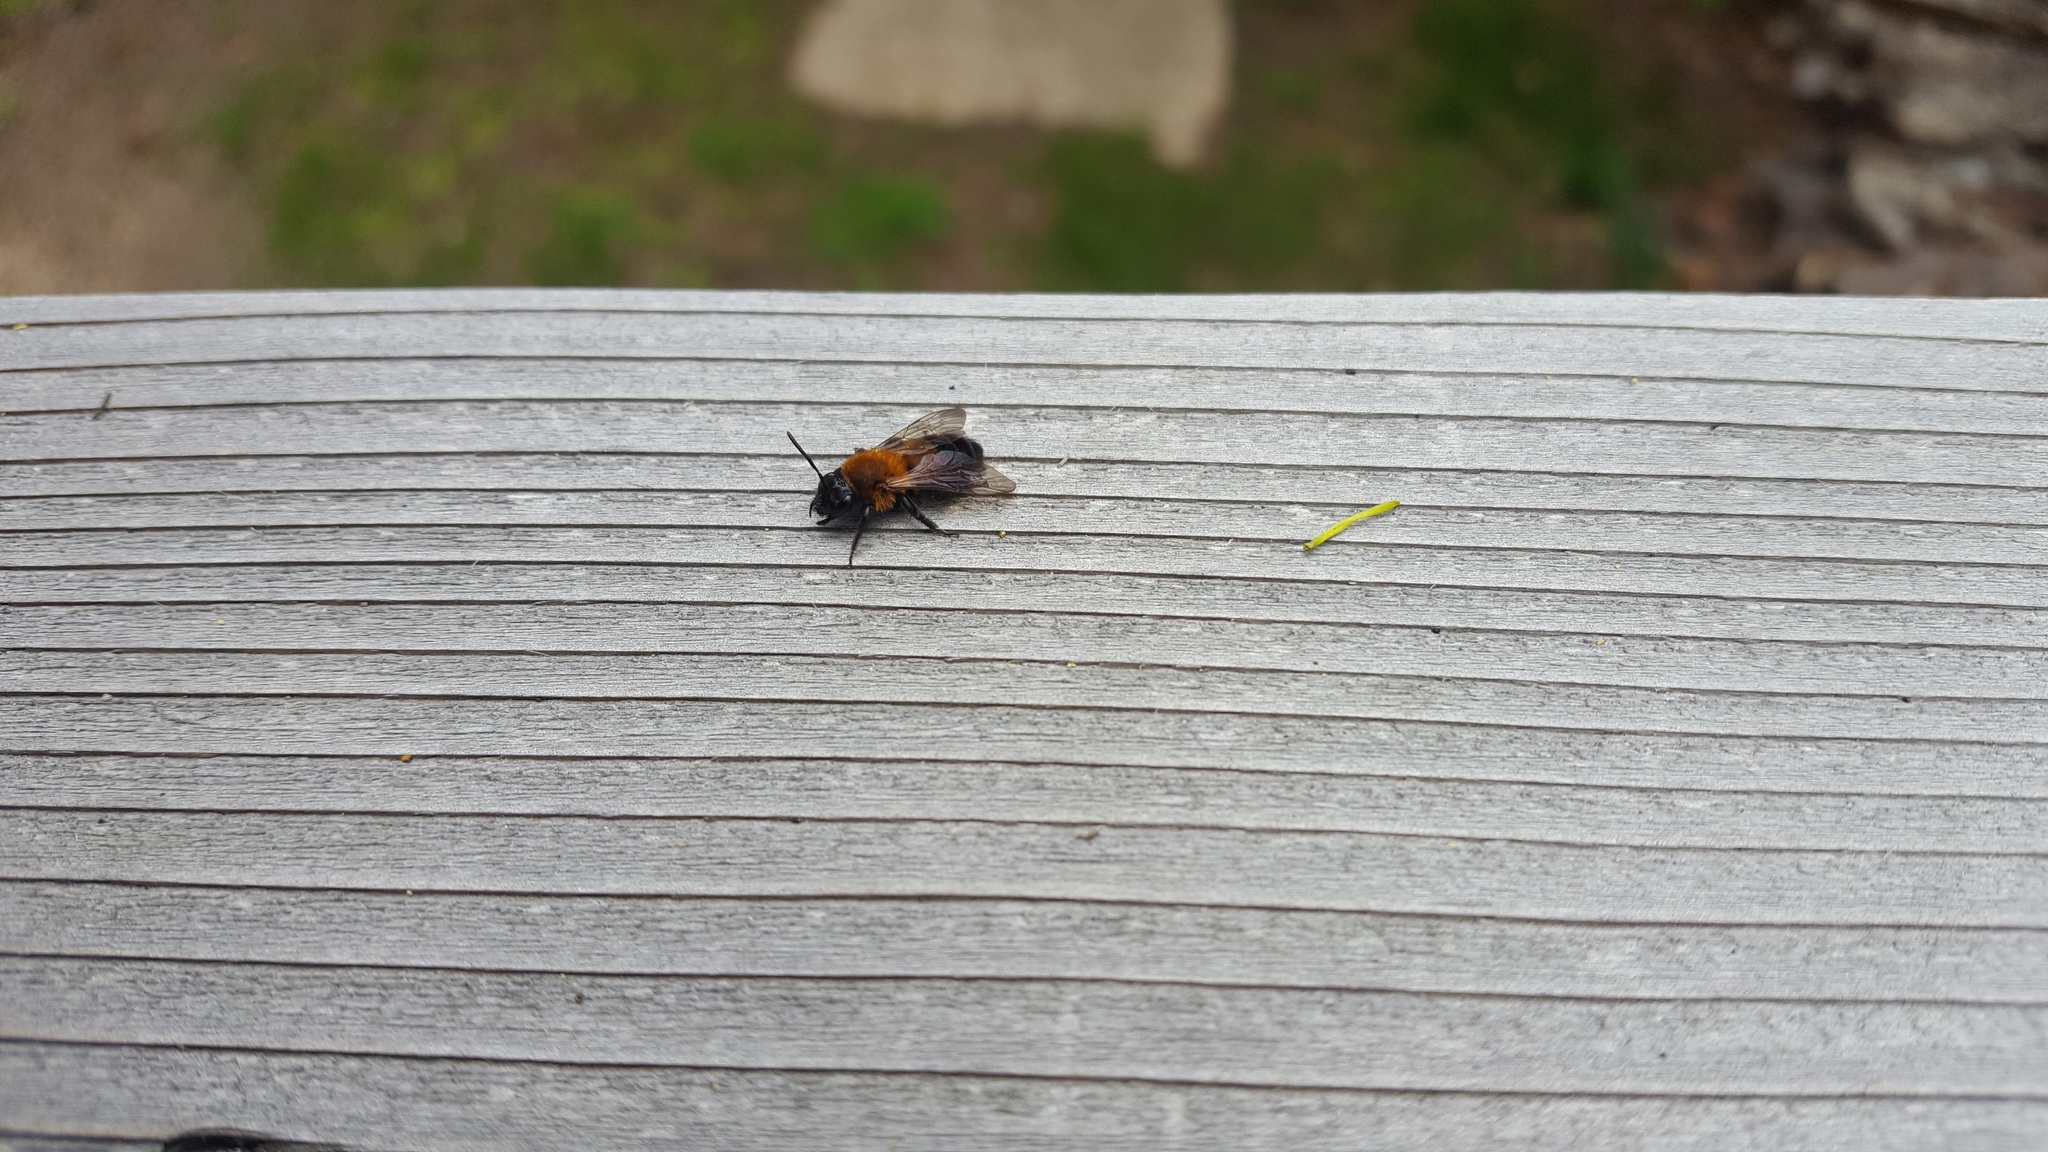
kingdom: Animalia
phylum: Arthropoda
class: Insecta
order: Hymenoptera
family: Andrenidae
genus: Andrena
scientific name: Andrena milwaukeensis
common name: Milwaukee mining bee
